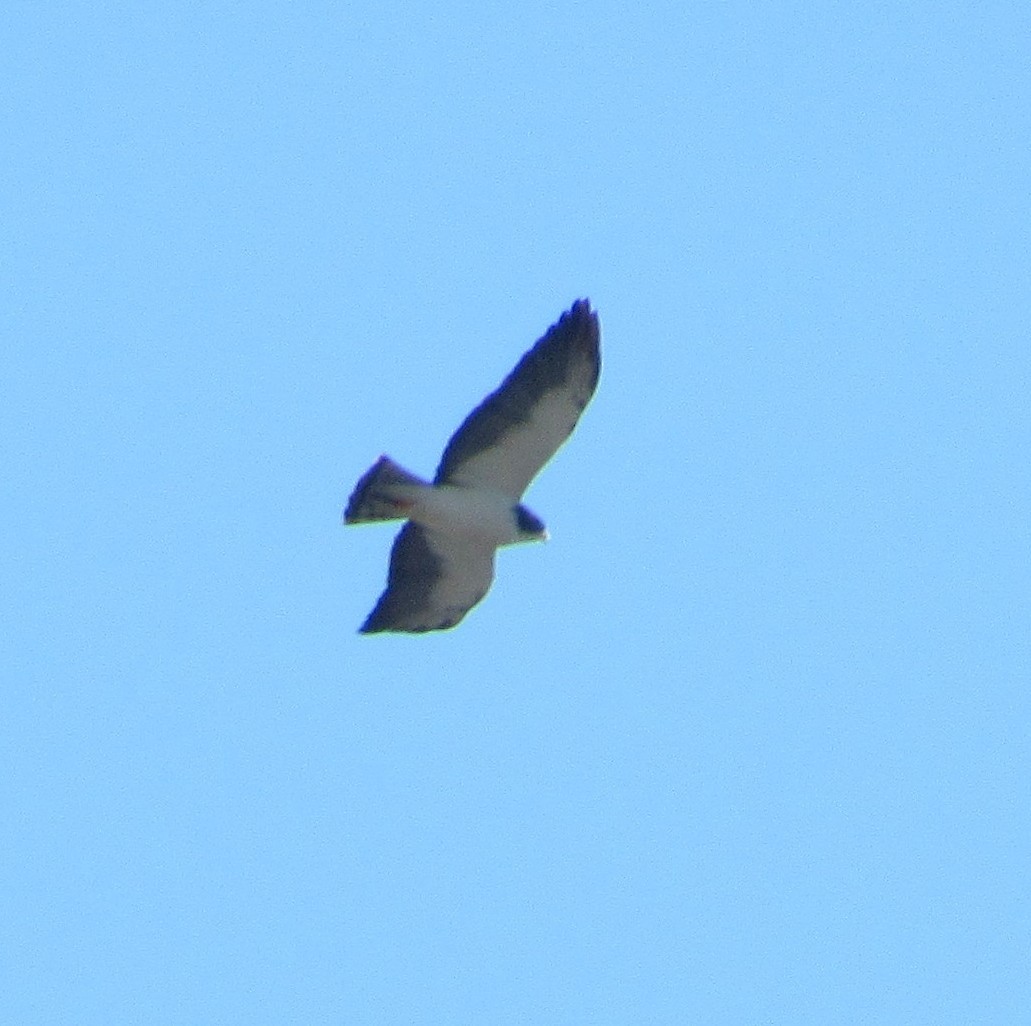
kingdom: Animalia
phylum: Chordata
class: Aves
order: Accipitriformes
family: Accipitridae
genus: Buteo
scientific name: Buteo brachyurus
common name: Short-tailed hawk
